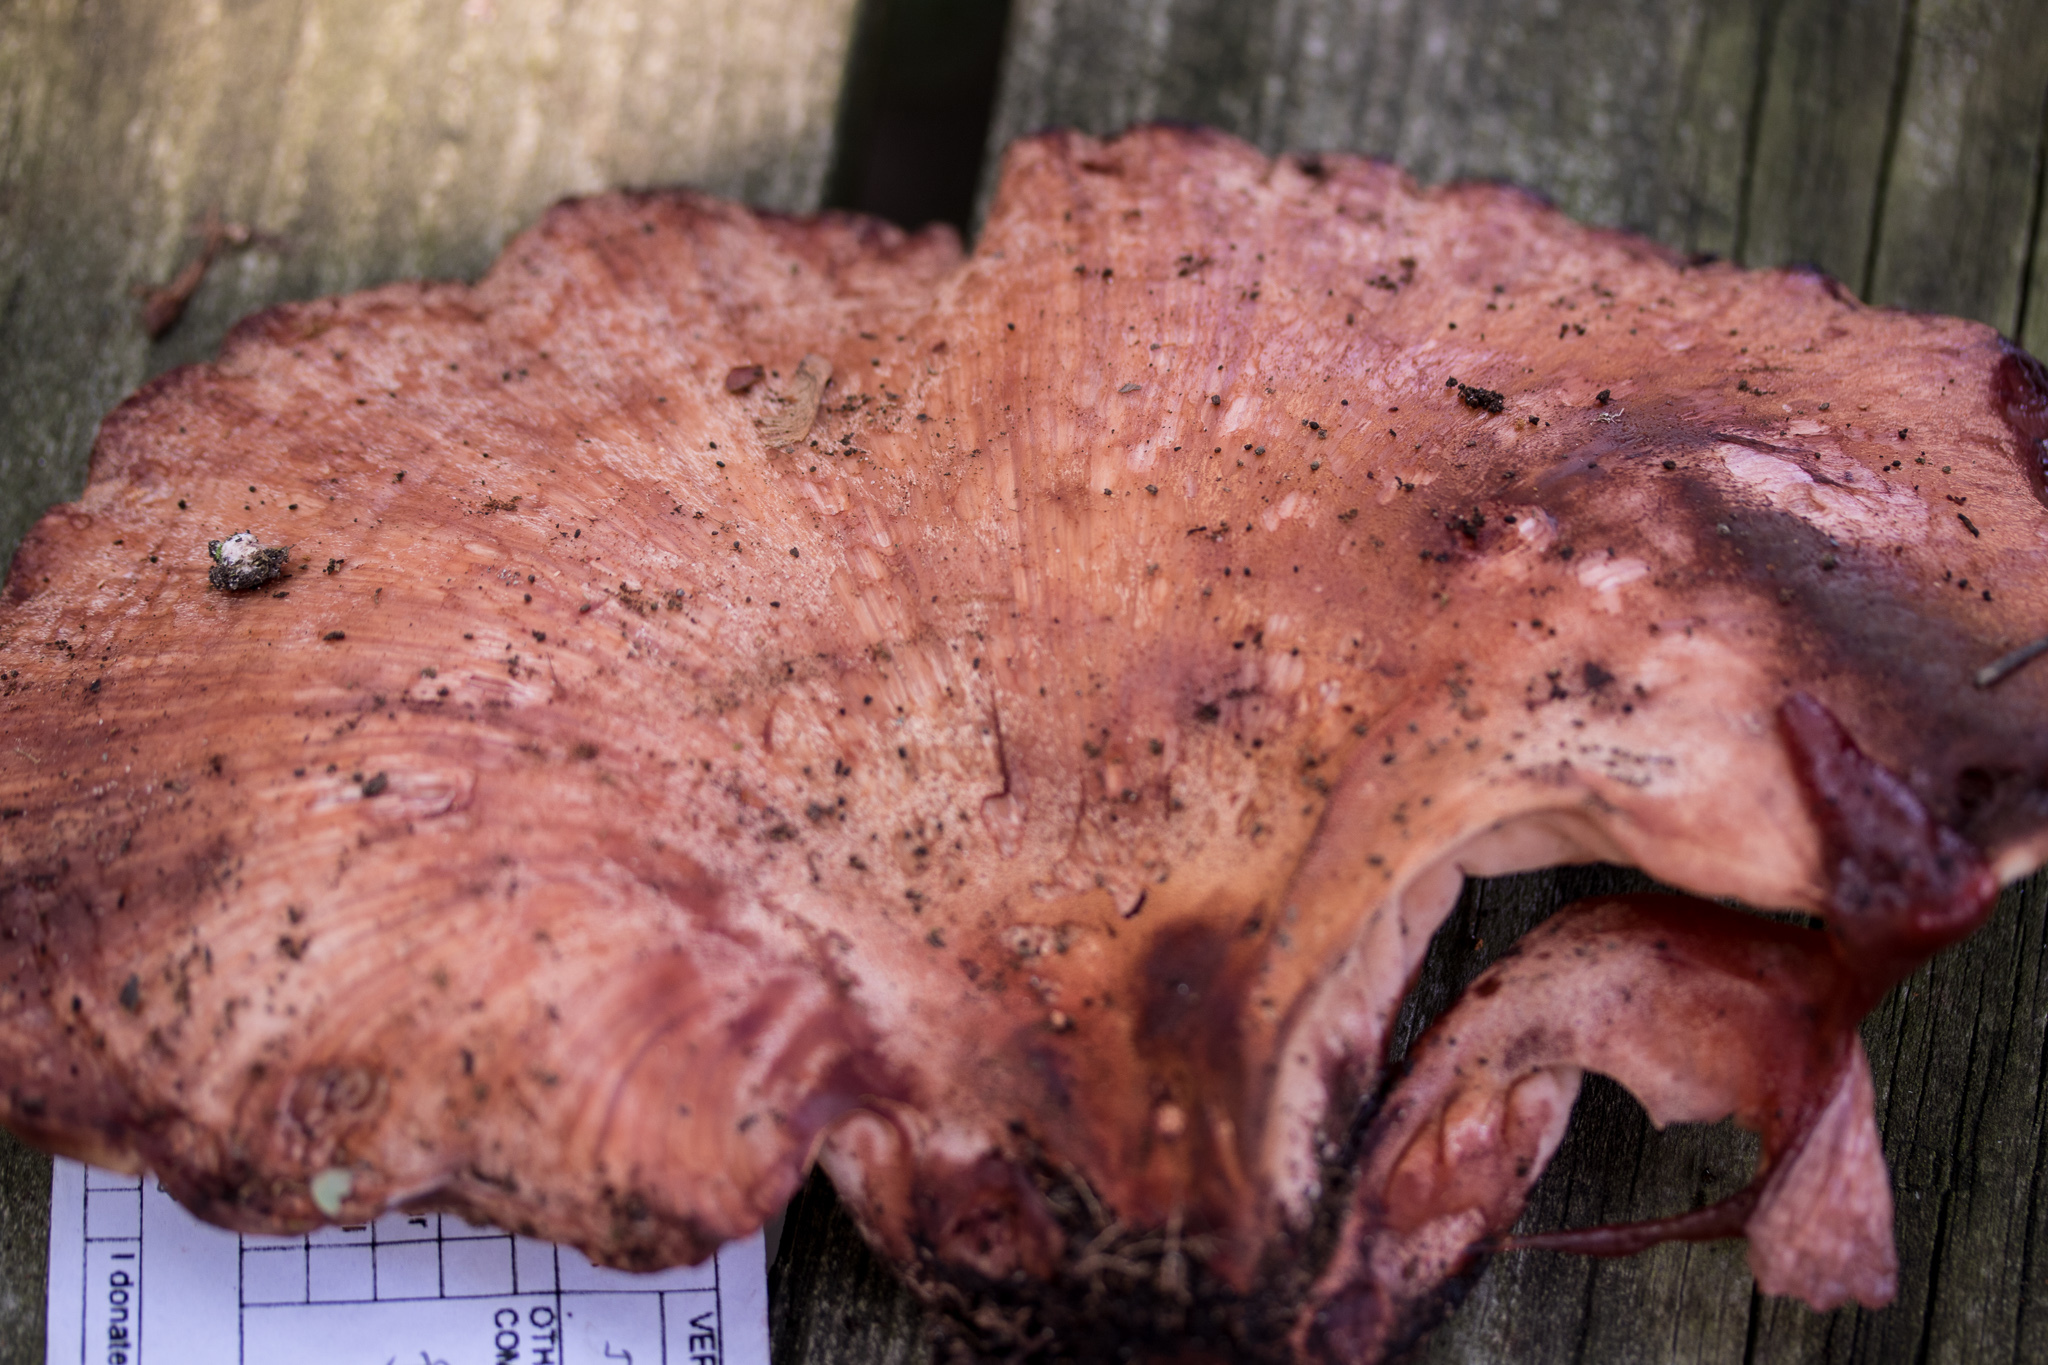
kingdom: Fungi
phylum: Basidiomycota
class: Agaricomycetes
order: Agaricales
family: Fistulinaceae
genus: Fistulina
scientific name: Fistulina hepatica
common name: Beef-steak fungus
